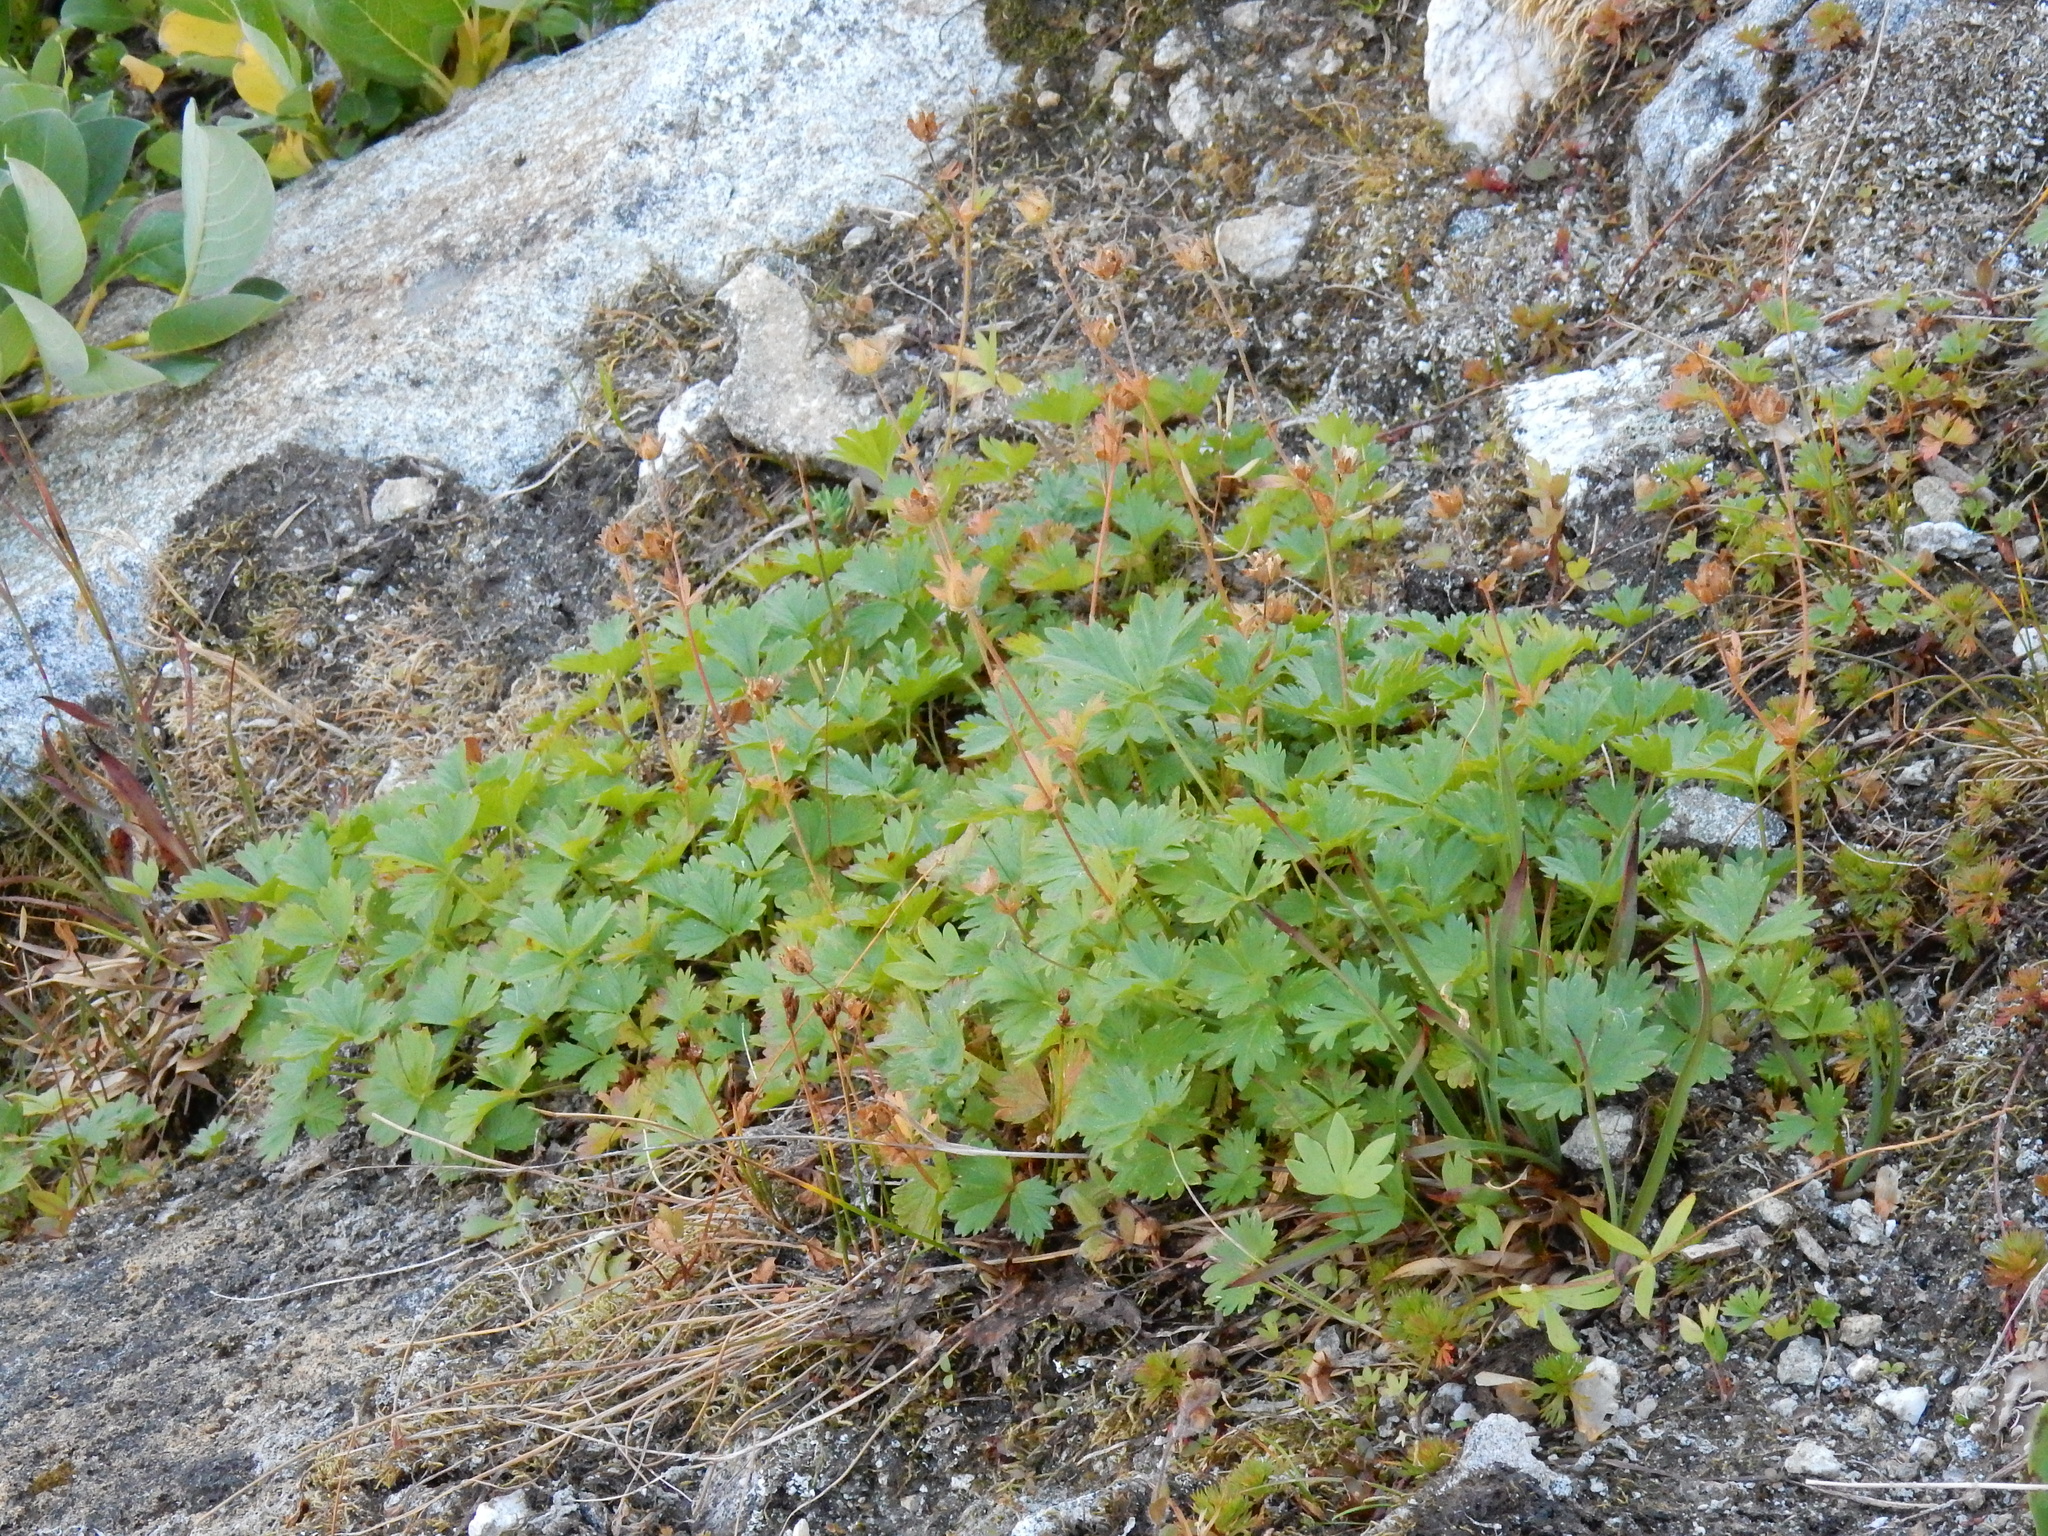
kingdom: Plantae
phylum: Tracheophyta
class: Magnoliopsida
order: Rosales
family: Rosaceae
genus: Potentilla
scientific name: Potentilla flabellifolia
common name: Mount rainier cinquefoil
